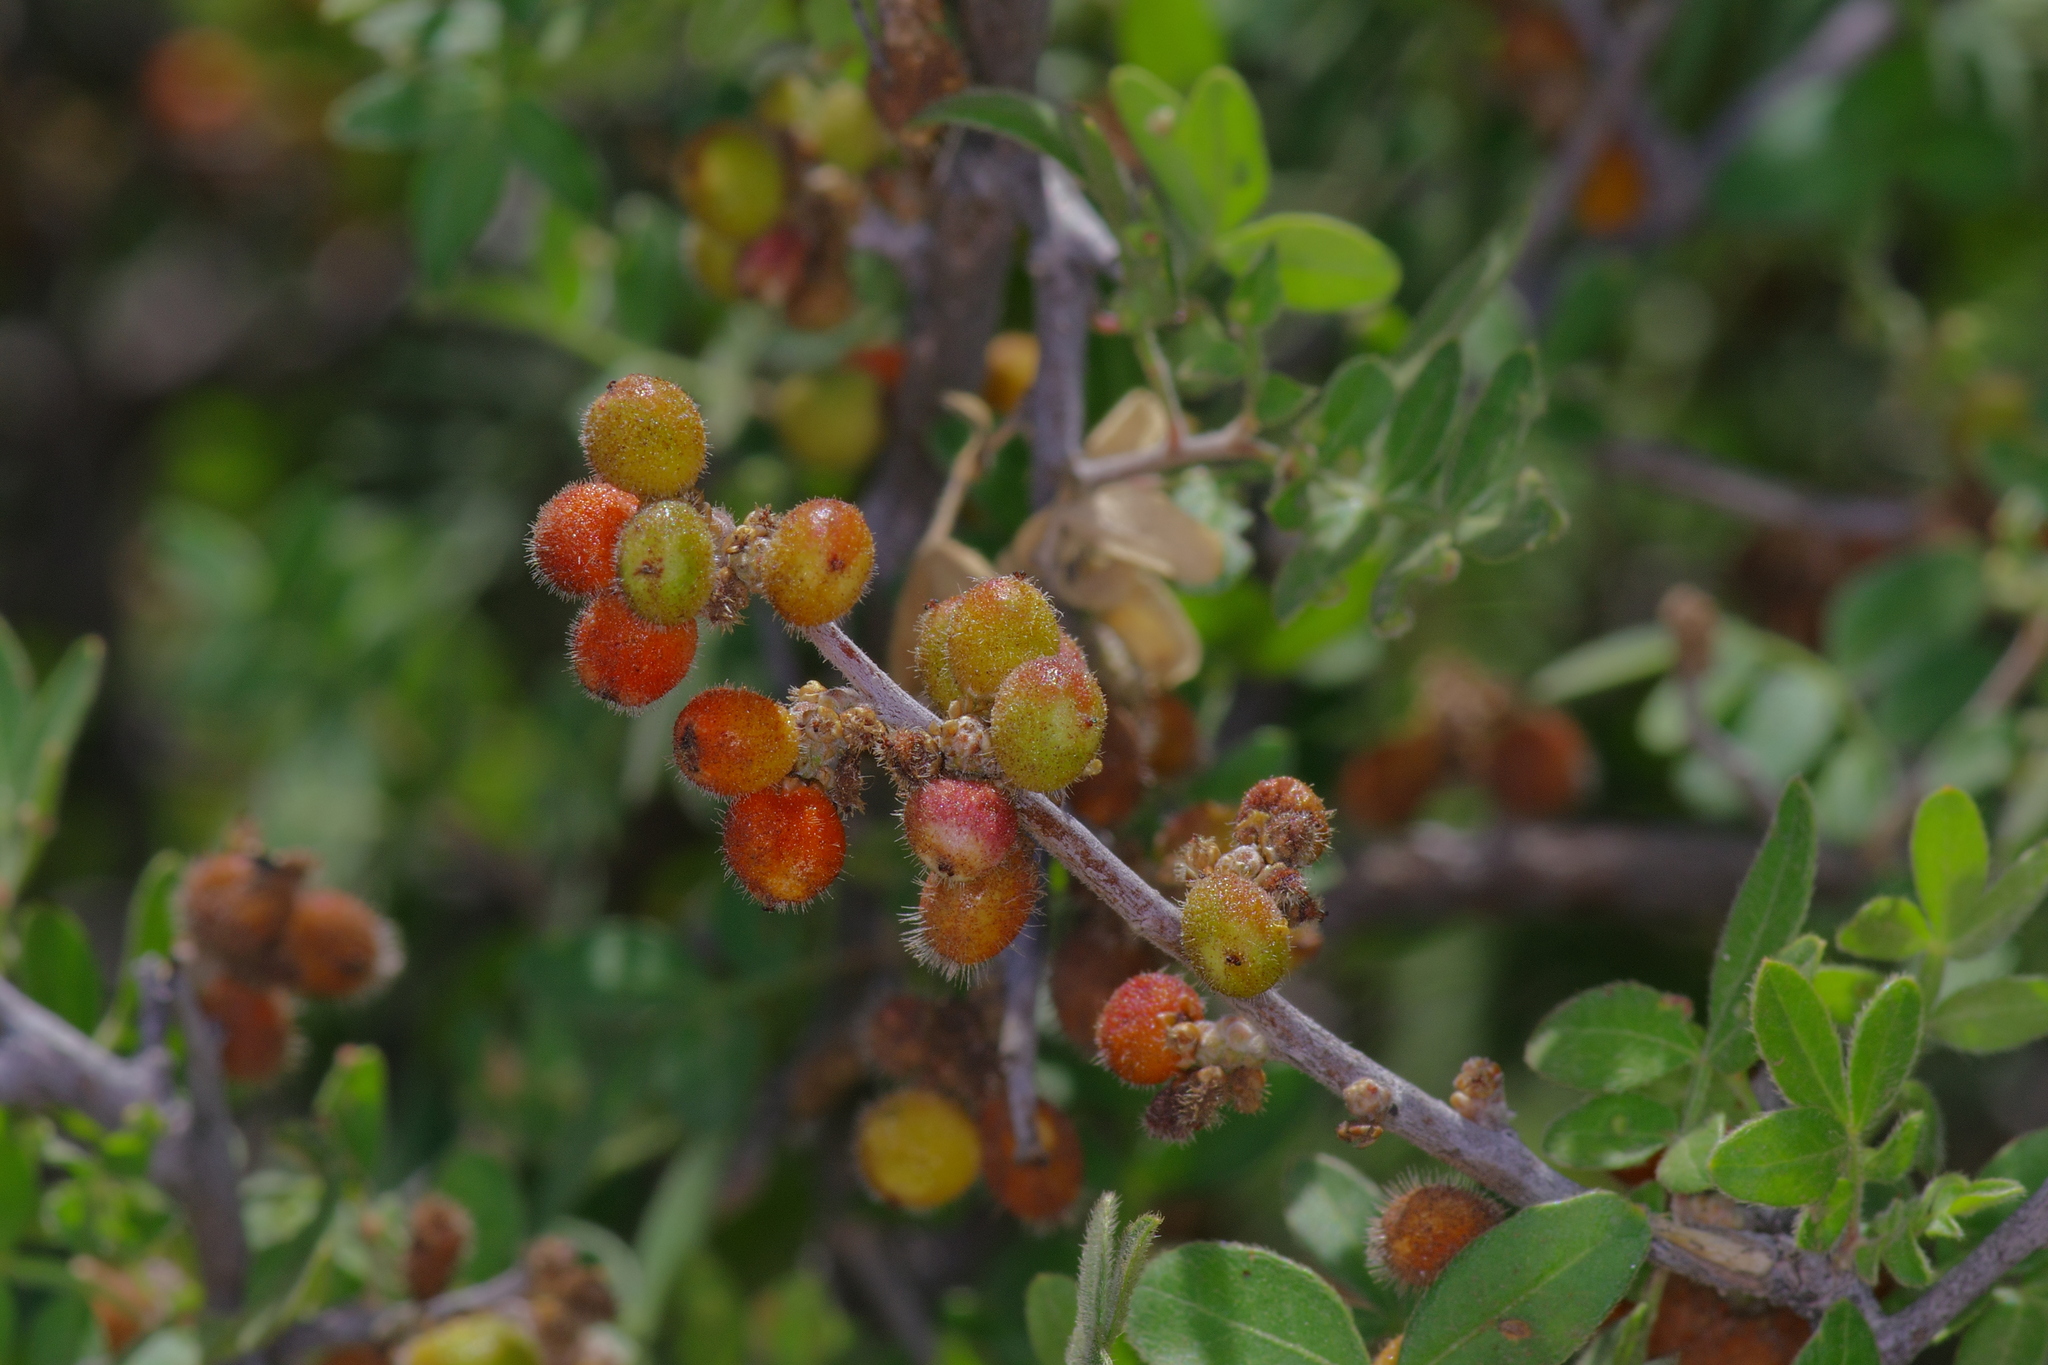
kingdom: Plantae
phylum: Tracheophyta
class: Magnoliopsida
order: Sapindales
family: Anacardiaceae
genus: Rhus
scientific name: Rhus microphylla
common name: Desert sumac
